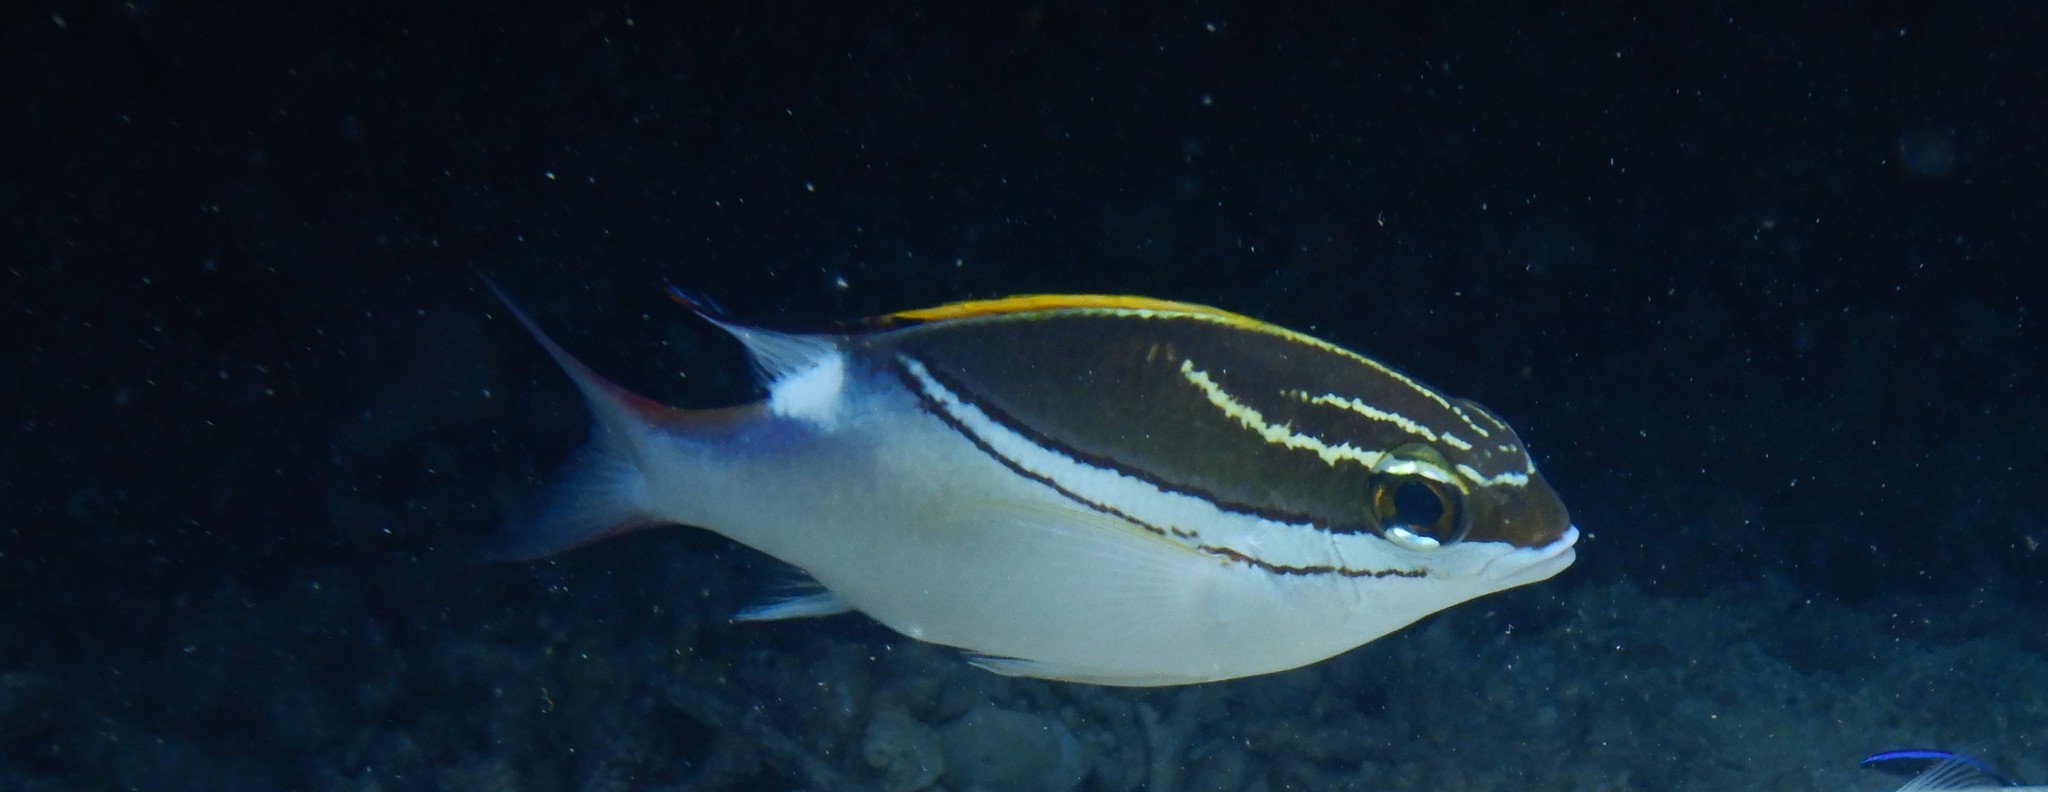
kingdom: Animalia
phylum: Chordata
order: Perciformes
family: Nemipteridae
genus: Scolopsis
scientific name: Scolopsis bilineata
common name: Two-lined monocle bream
